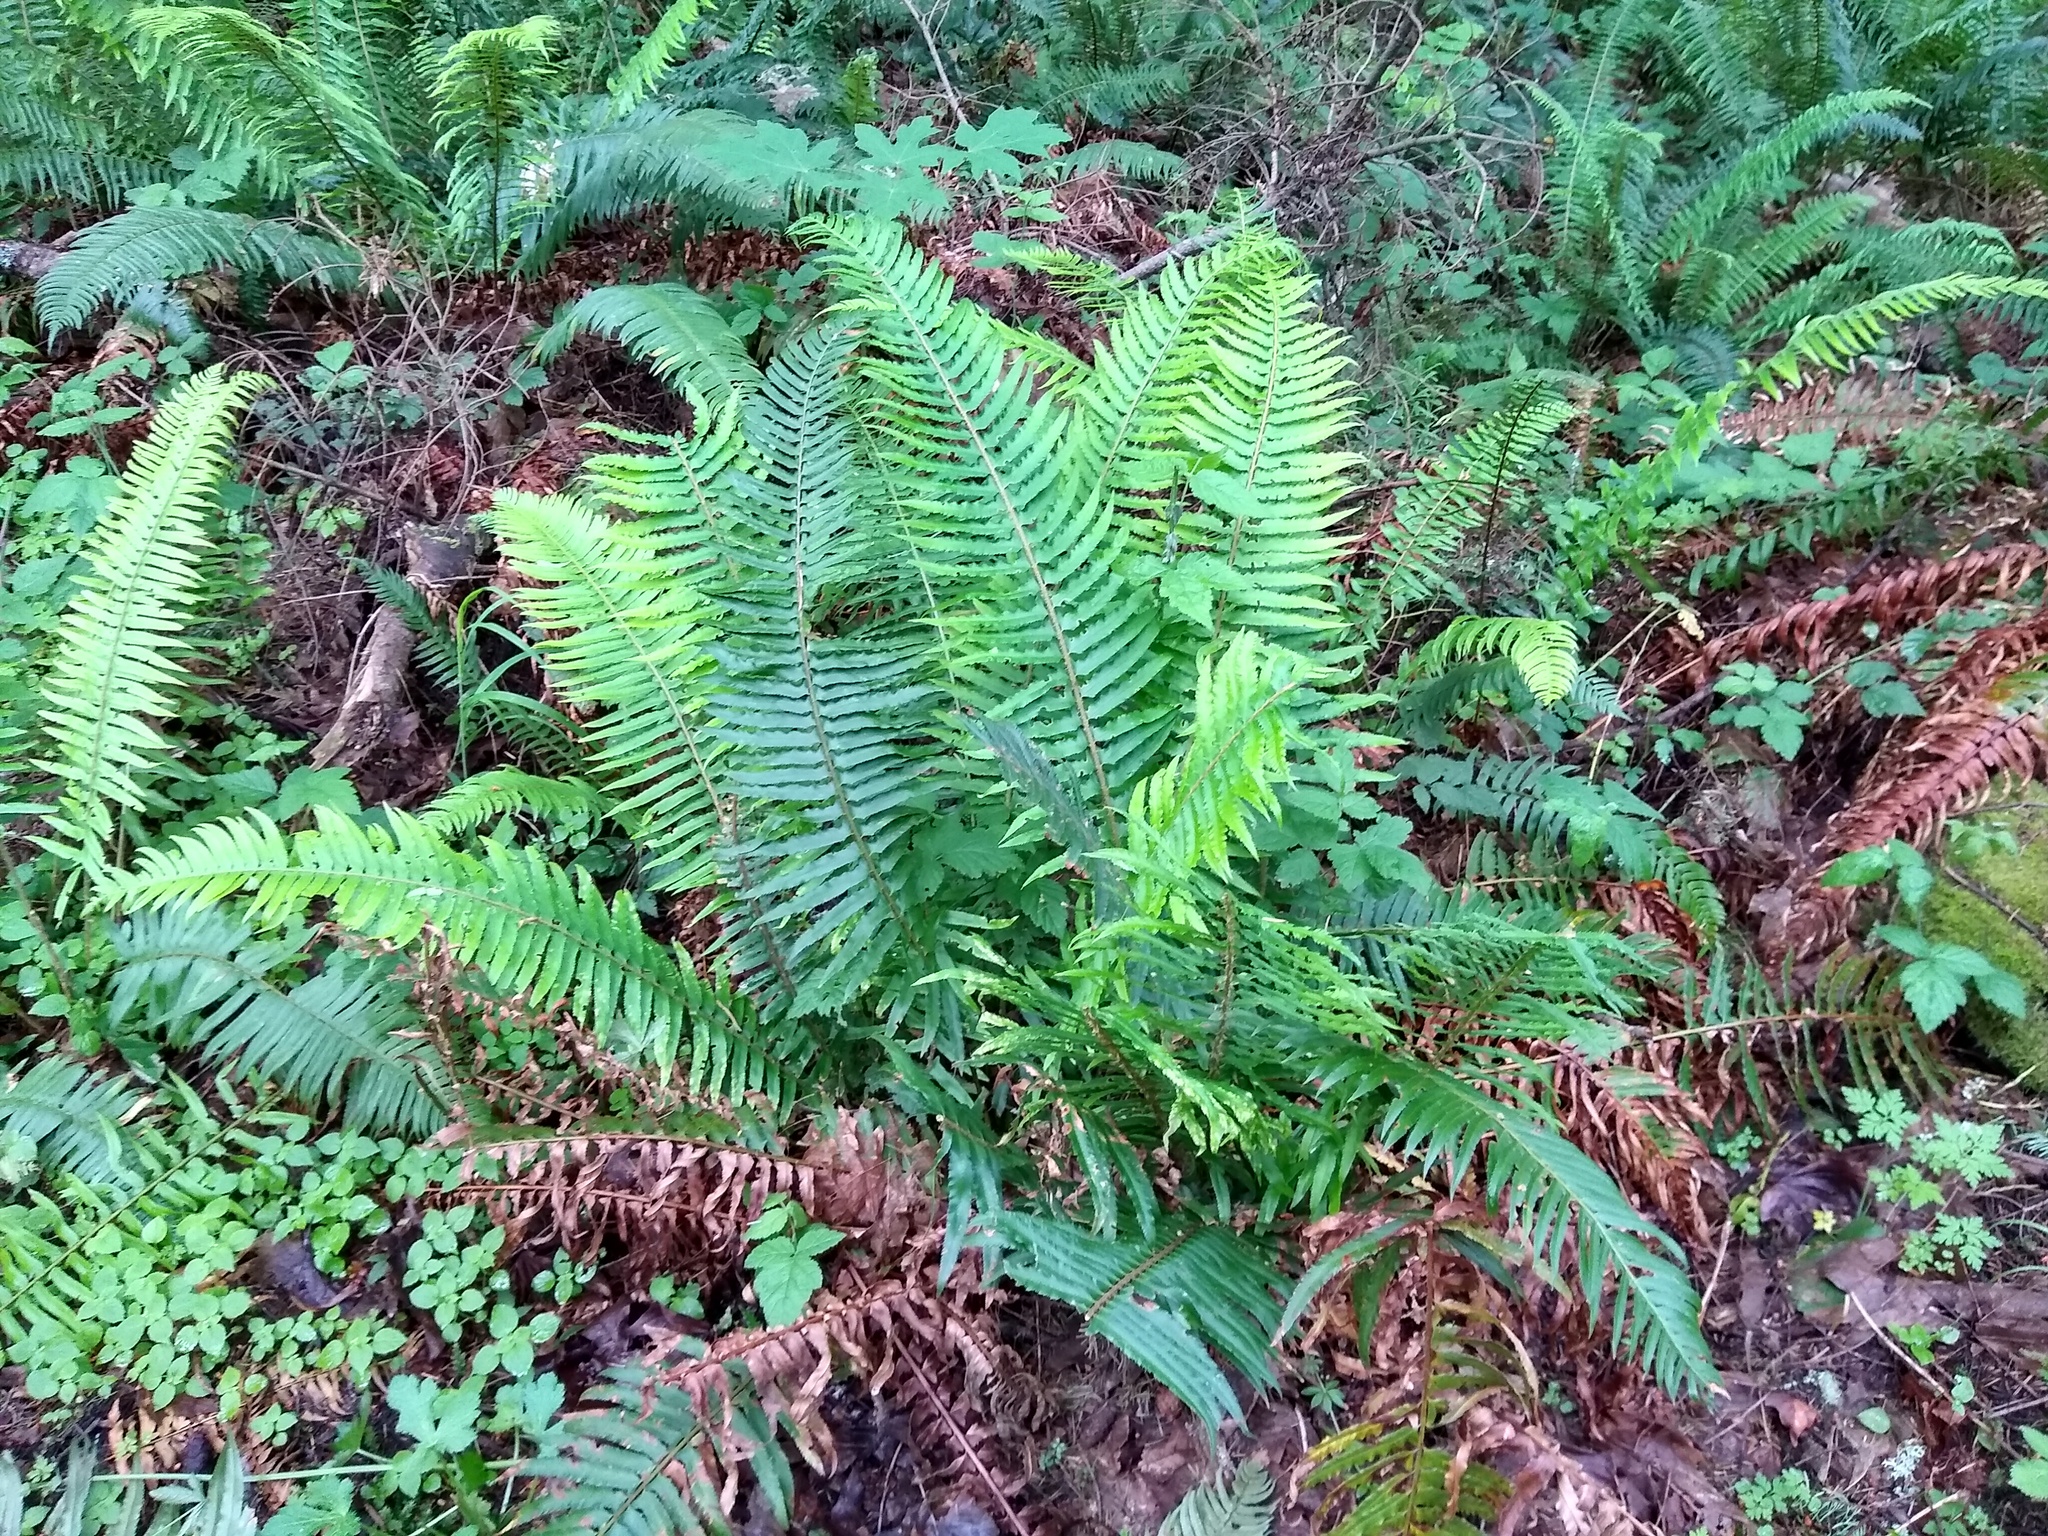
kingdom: Plantae
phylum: Tracheophyta
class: Polypodiopsida
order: Polypodiales
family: Dryopteridaceae
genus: Polystichum
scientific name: Polystichum munitum
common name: Western sword-fern
